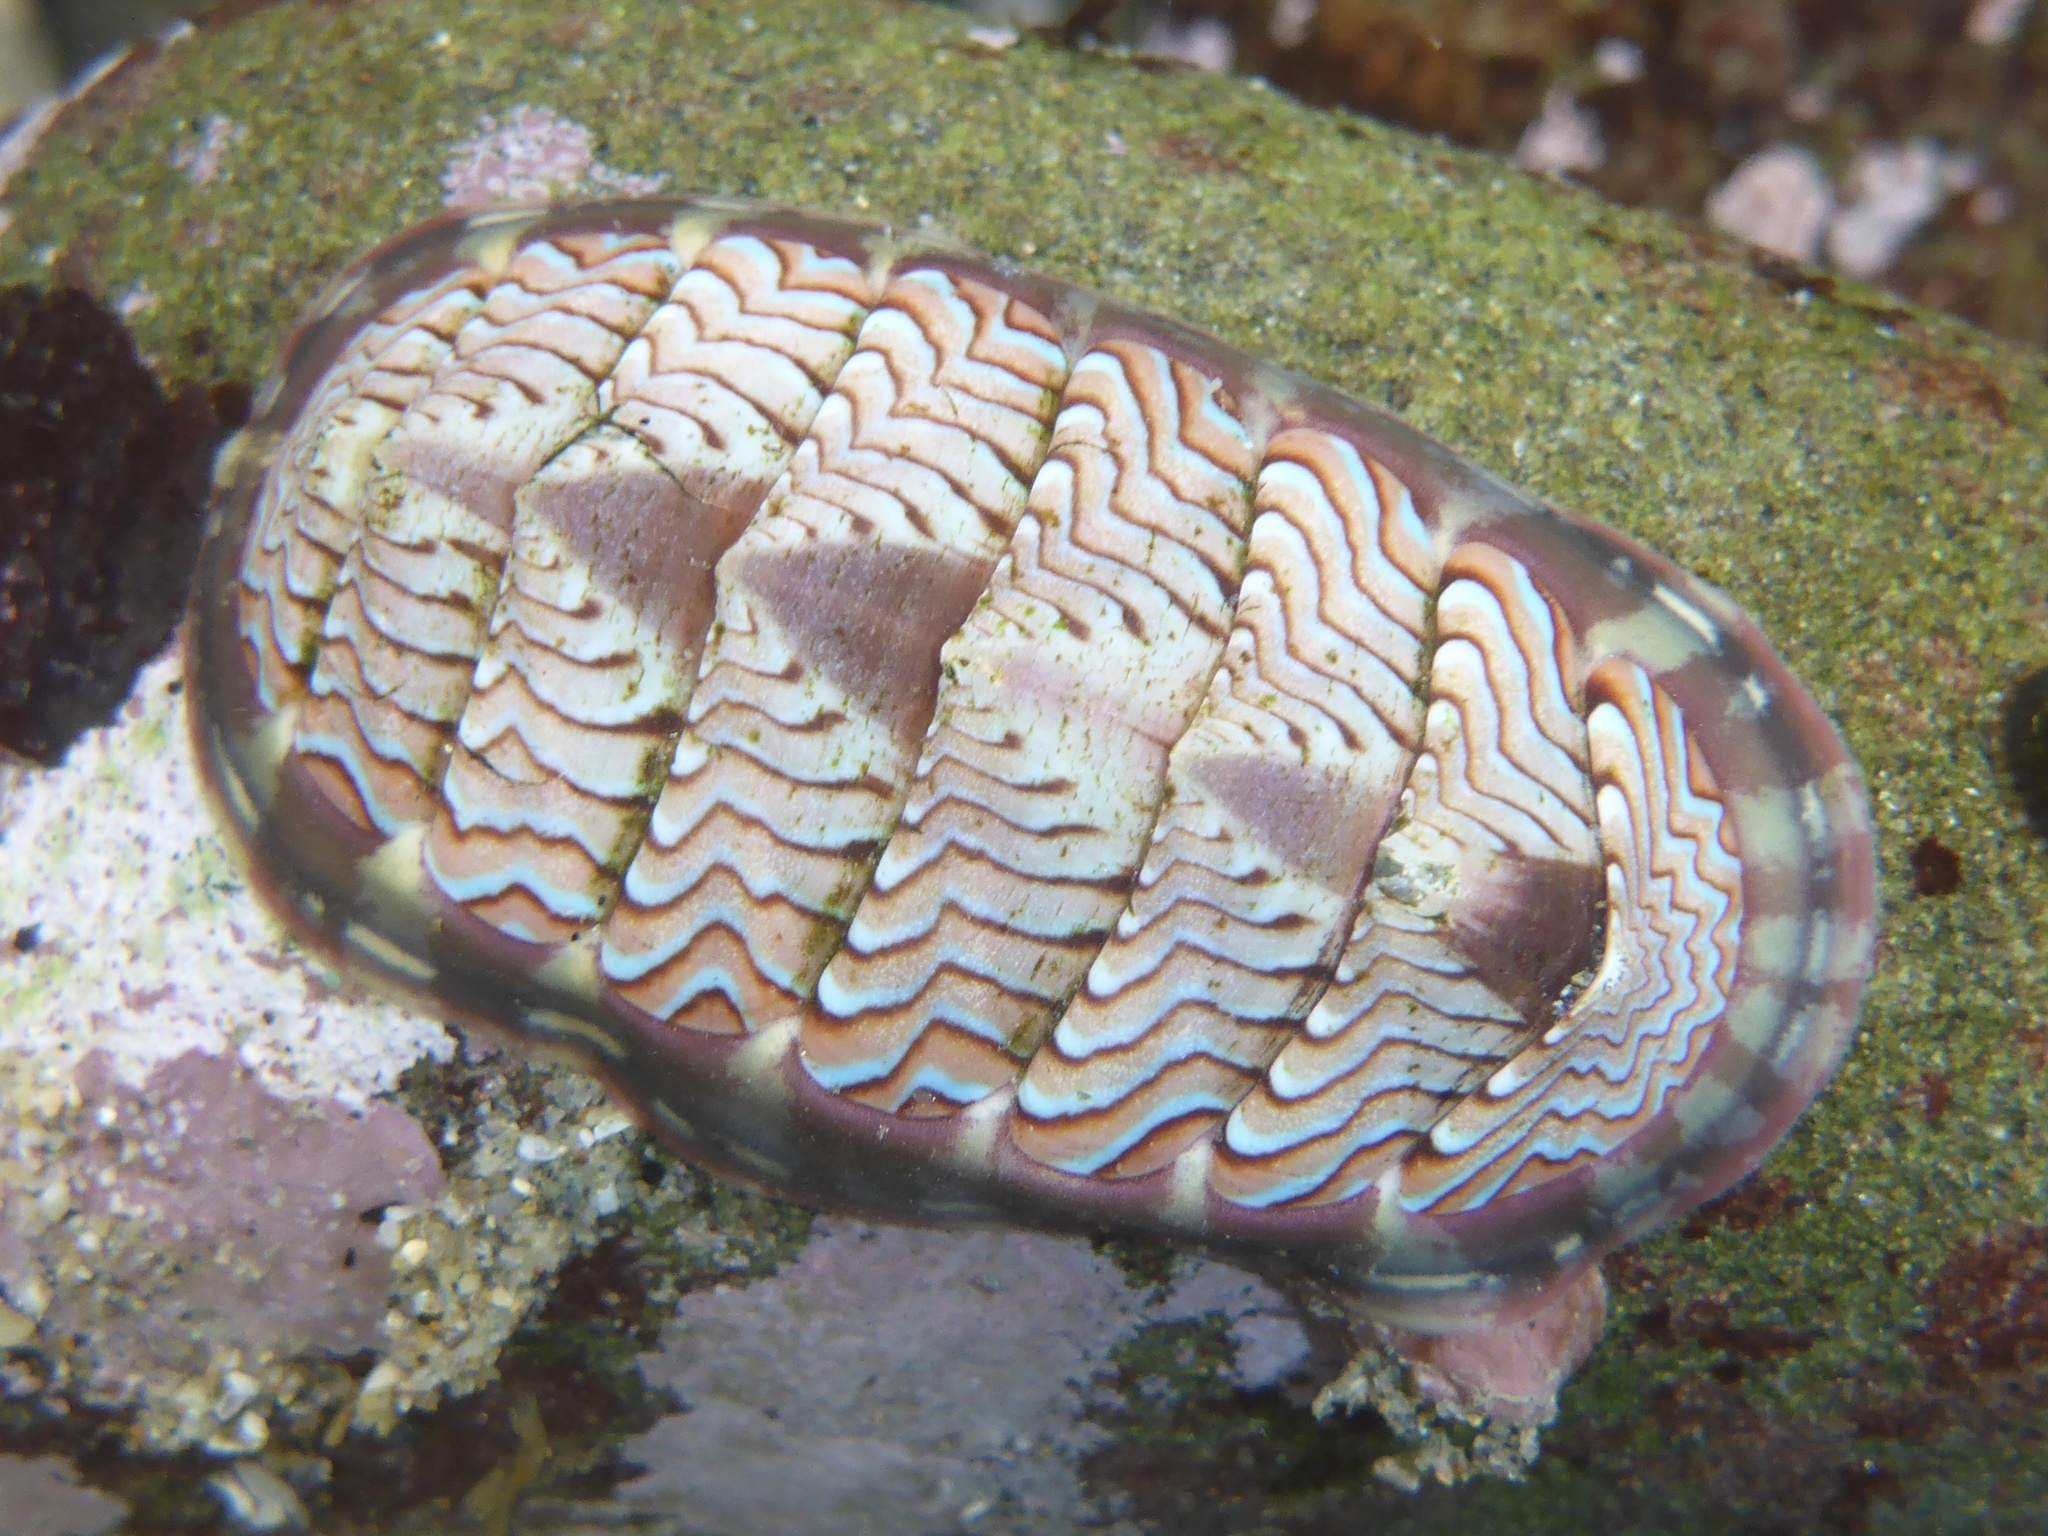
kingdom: Animalia
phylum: Mollusca
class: Polyplacophora
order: Chitonida
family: Tonicellidae
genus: Tonicella
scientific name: Tonicella lokii
